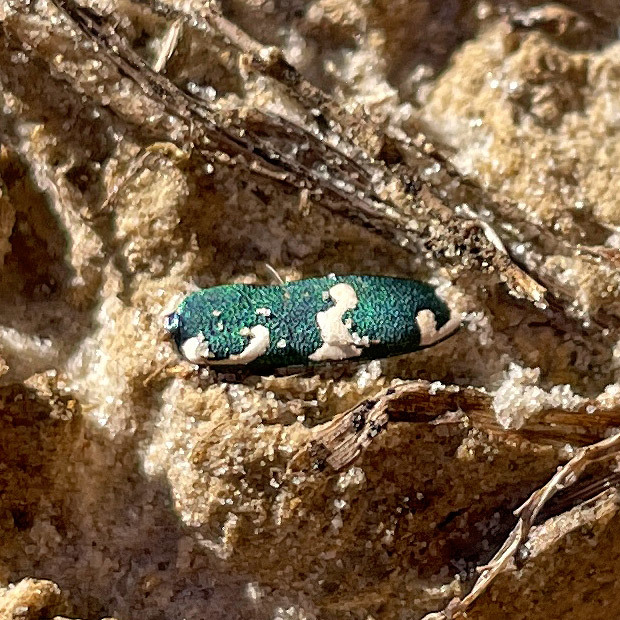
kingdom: Animalia
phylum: Arthropoda
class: Insecta
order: Coleoptera
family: Carabidae
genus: Cicindela
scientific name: Cicindela hybrida
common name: Northern dune tiger beetle
